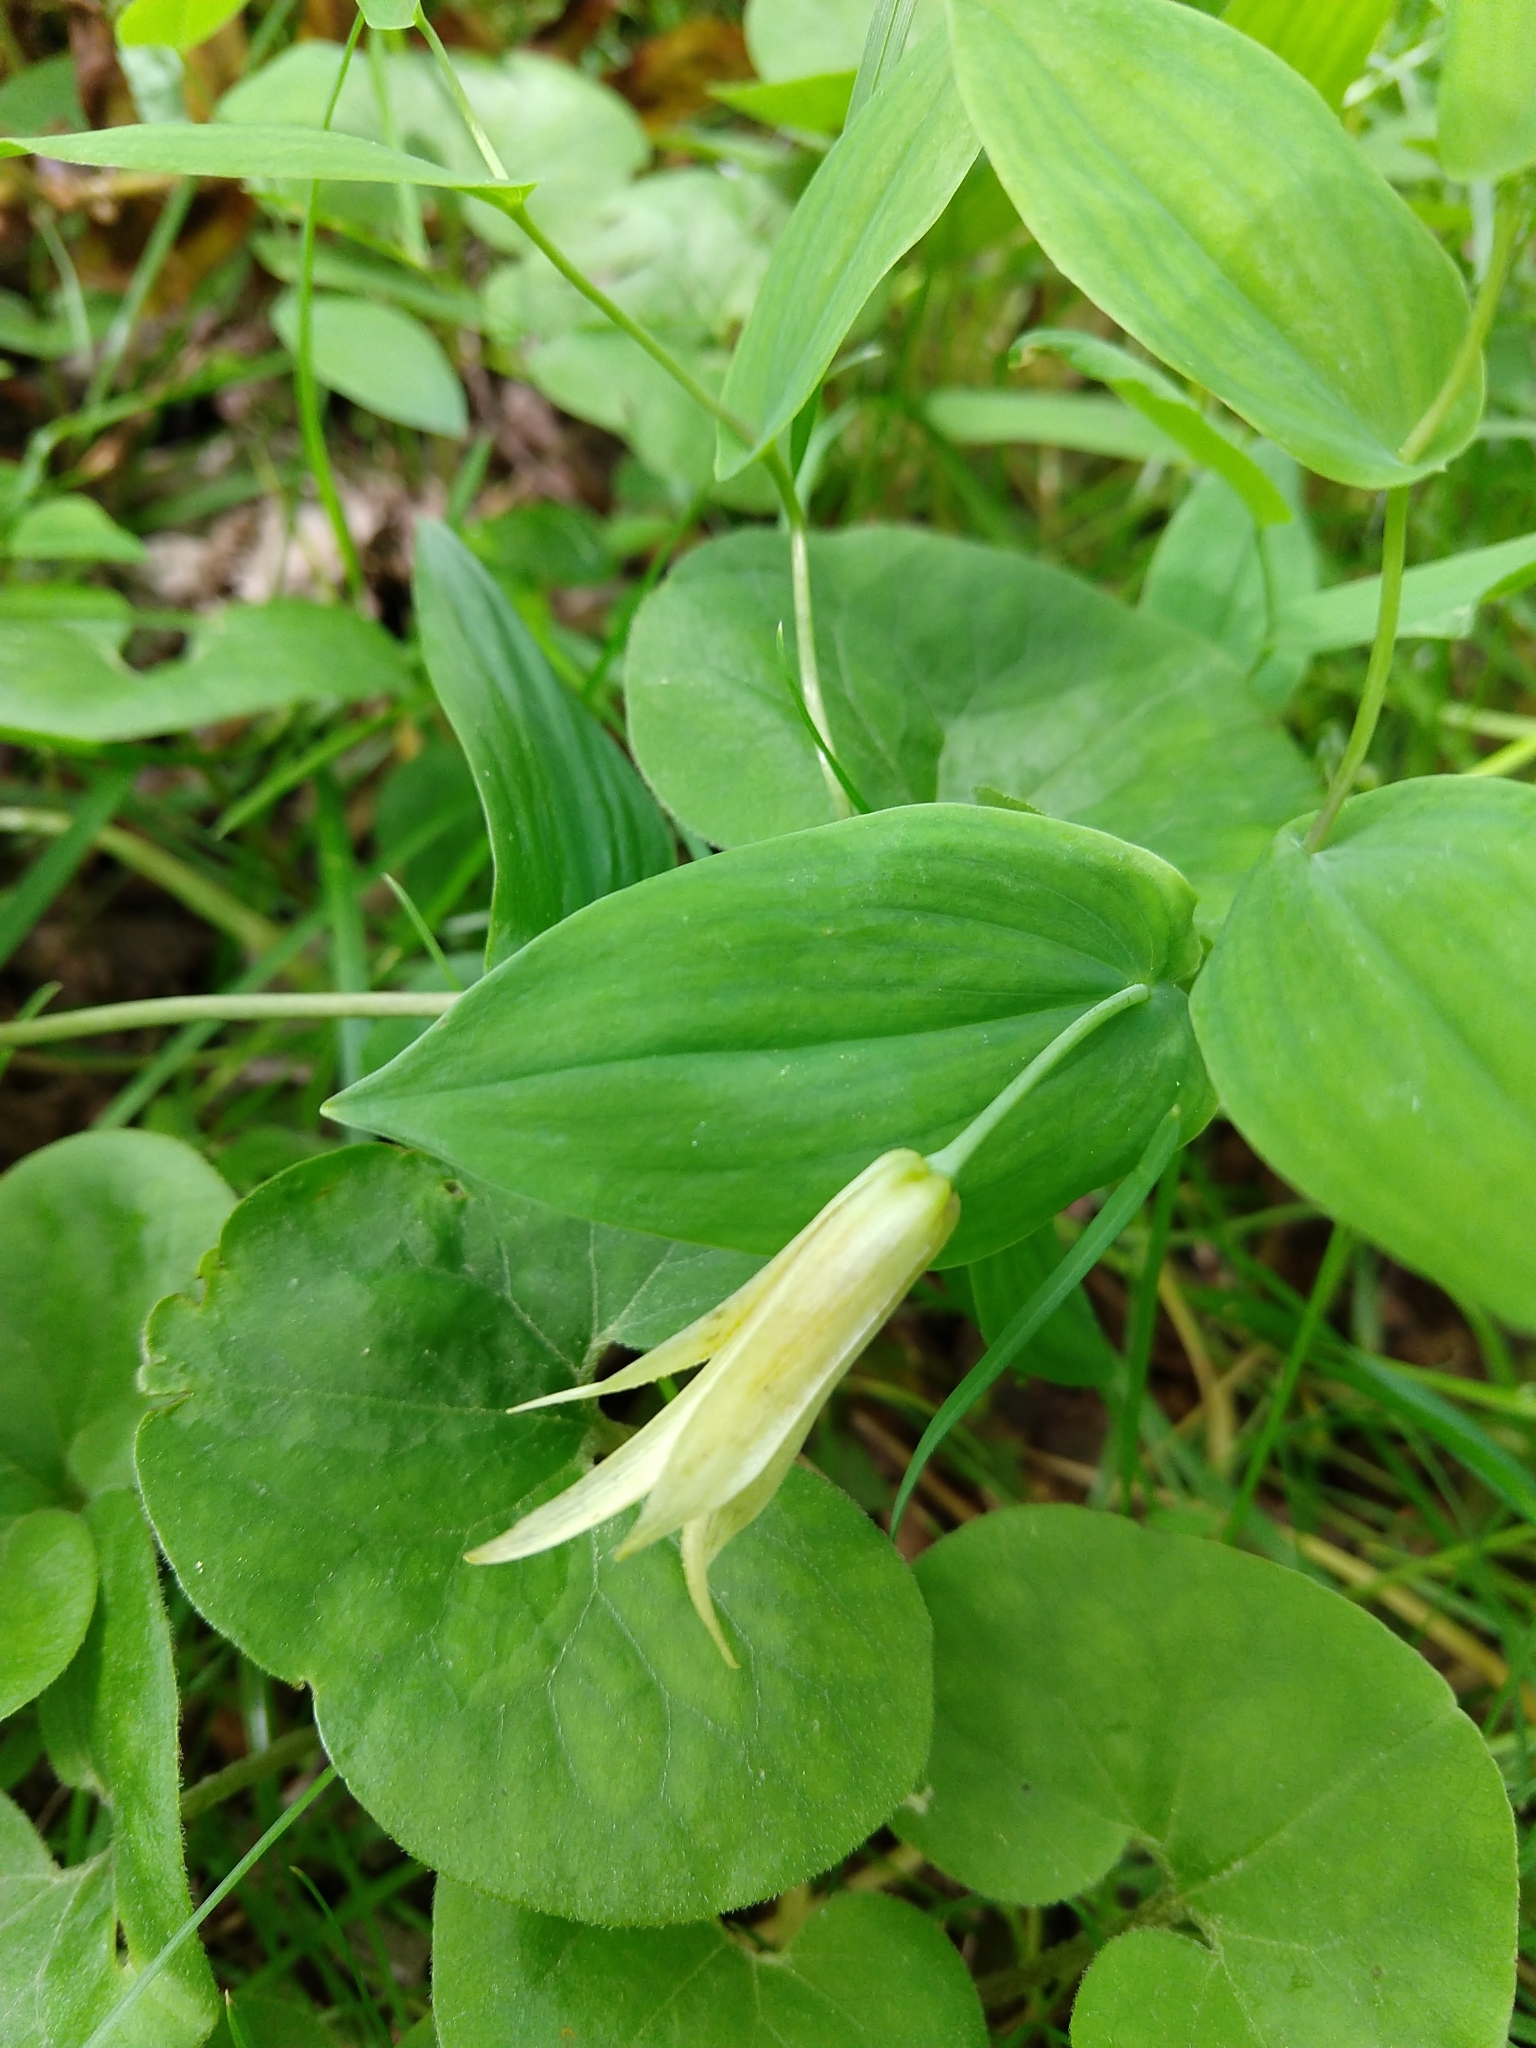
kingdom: Plantae
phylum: Tracheophyta
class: Liliopsida
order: Liliales
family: Colchicaceae
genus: Uvularia
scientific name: Uvularia perfoliata
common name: Perfoliate bellwort
